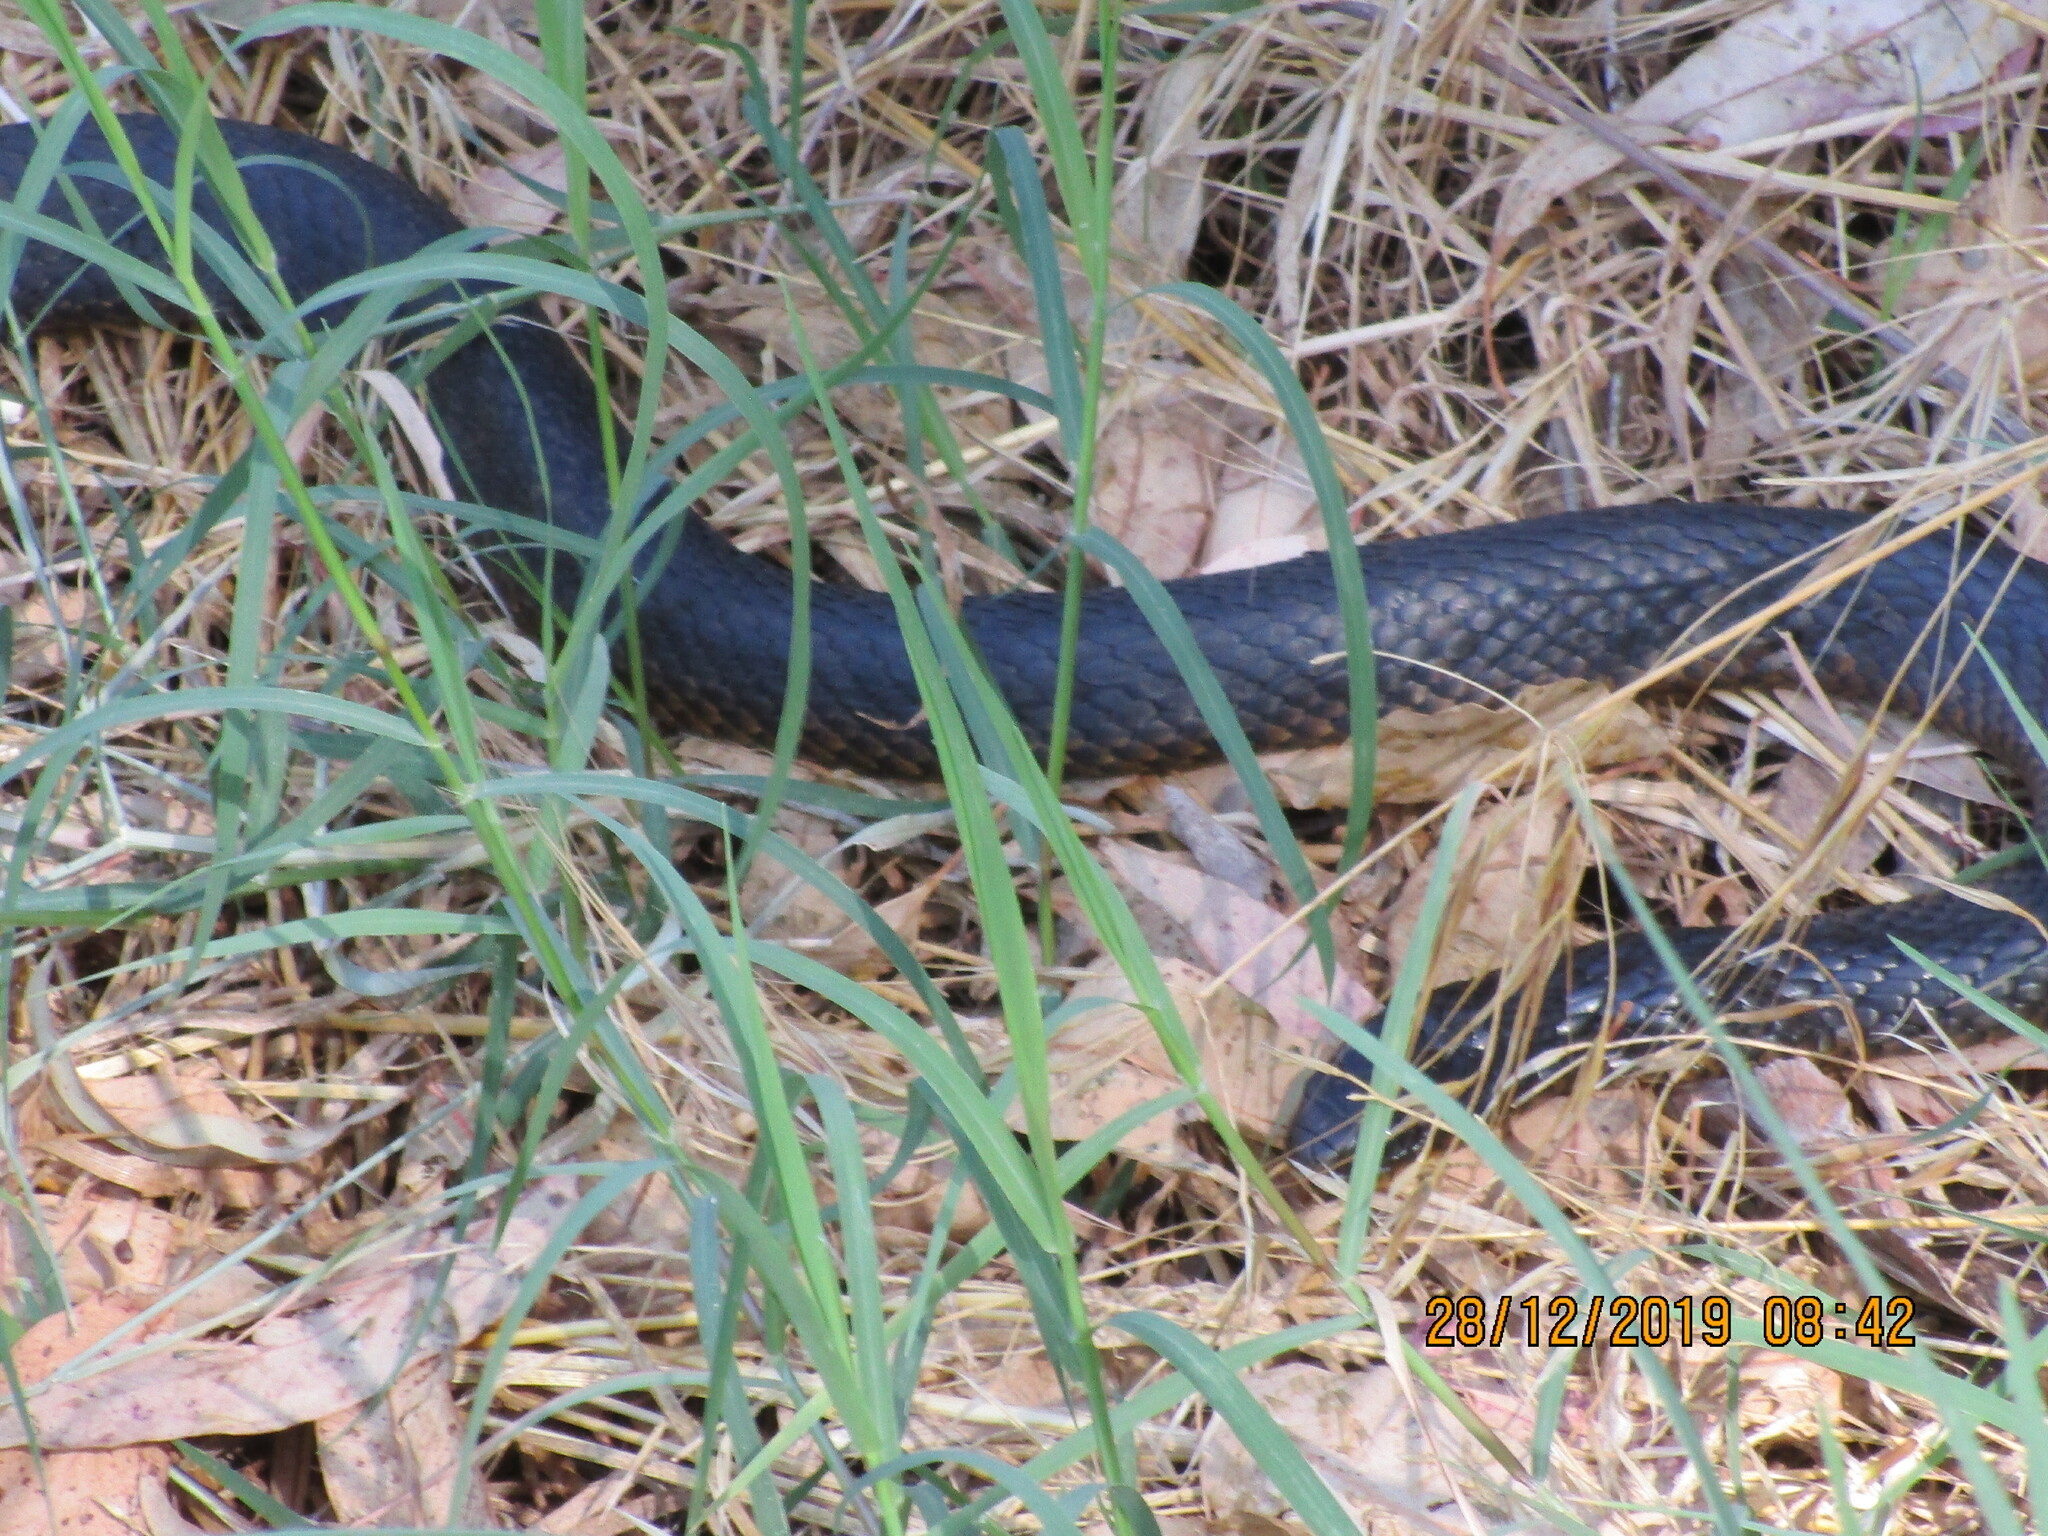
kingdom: Animalia
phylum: Chordata
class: Squamata
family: Elapidae
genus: Notechis
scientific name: Notechis scutatus
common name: Mainland tiger snake
